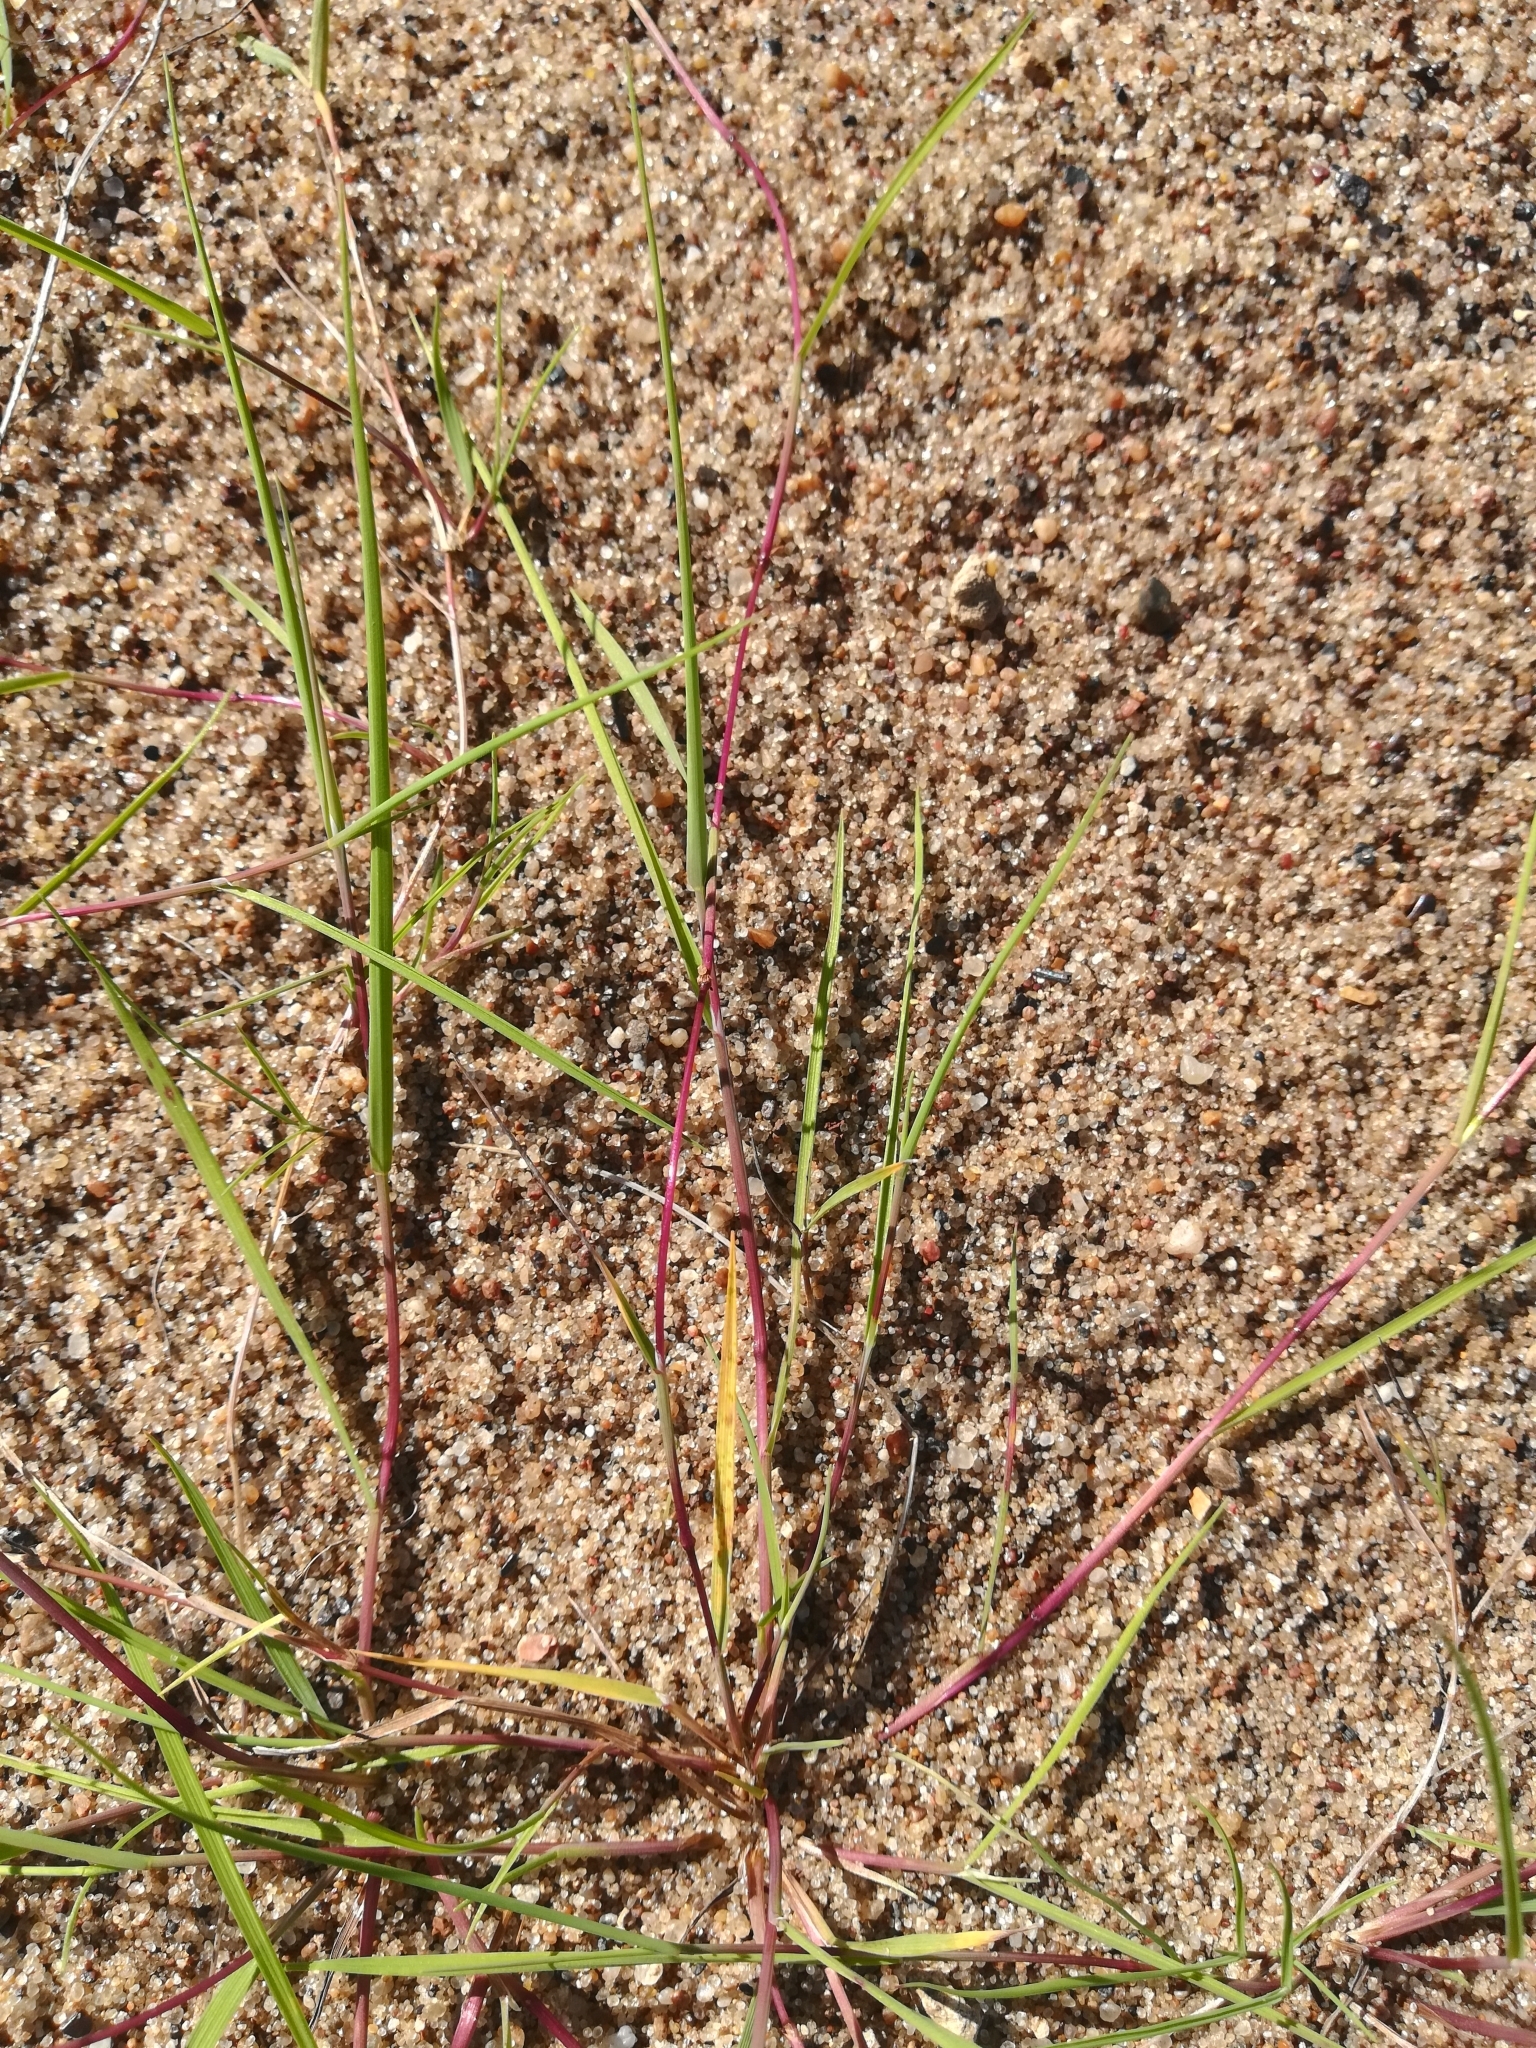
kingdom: Plantae
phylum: Tracheophyta
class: Liliopsida
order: Poales
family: Poaceae
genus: Agrostis
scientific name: Agrostis stolonifera
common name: Creeping bentgrass
